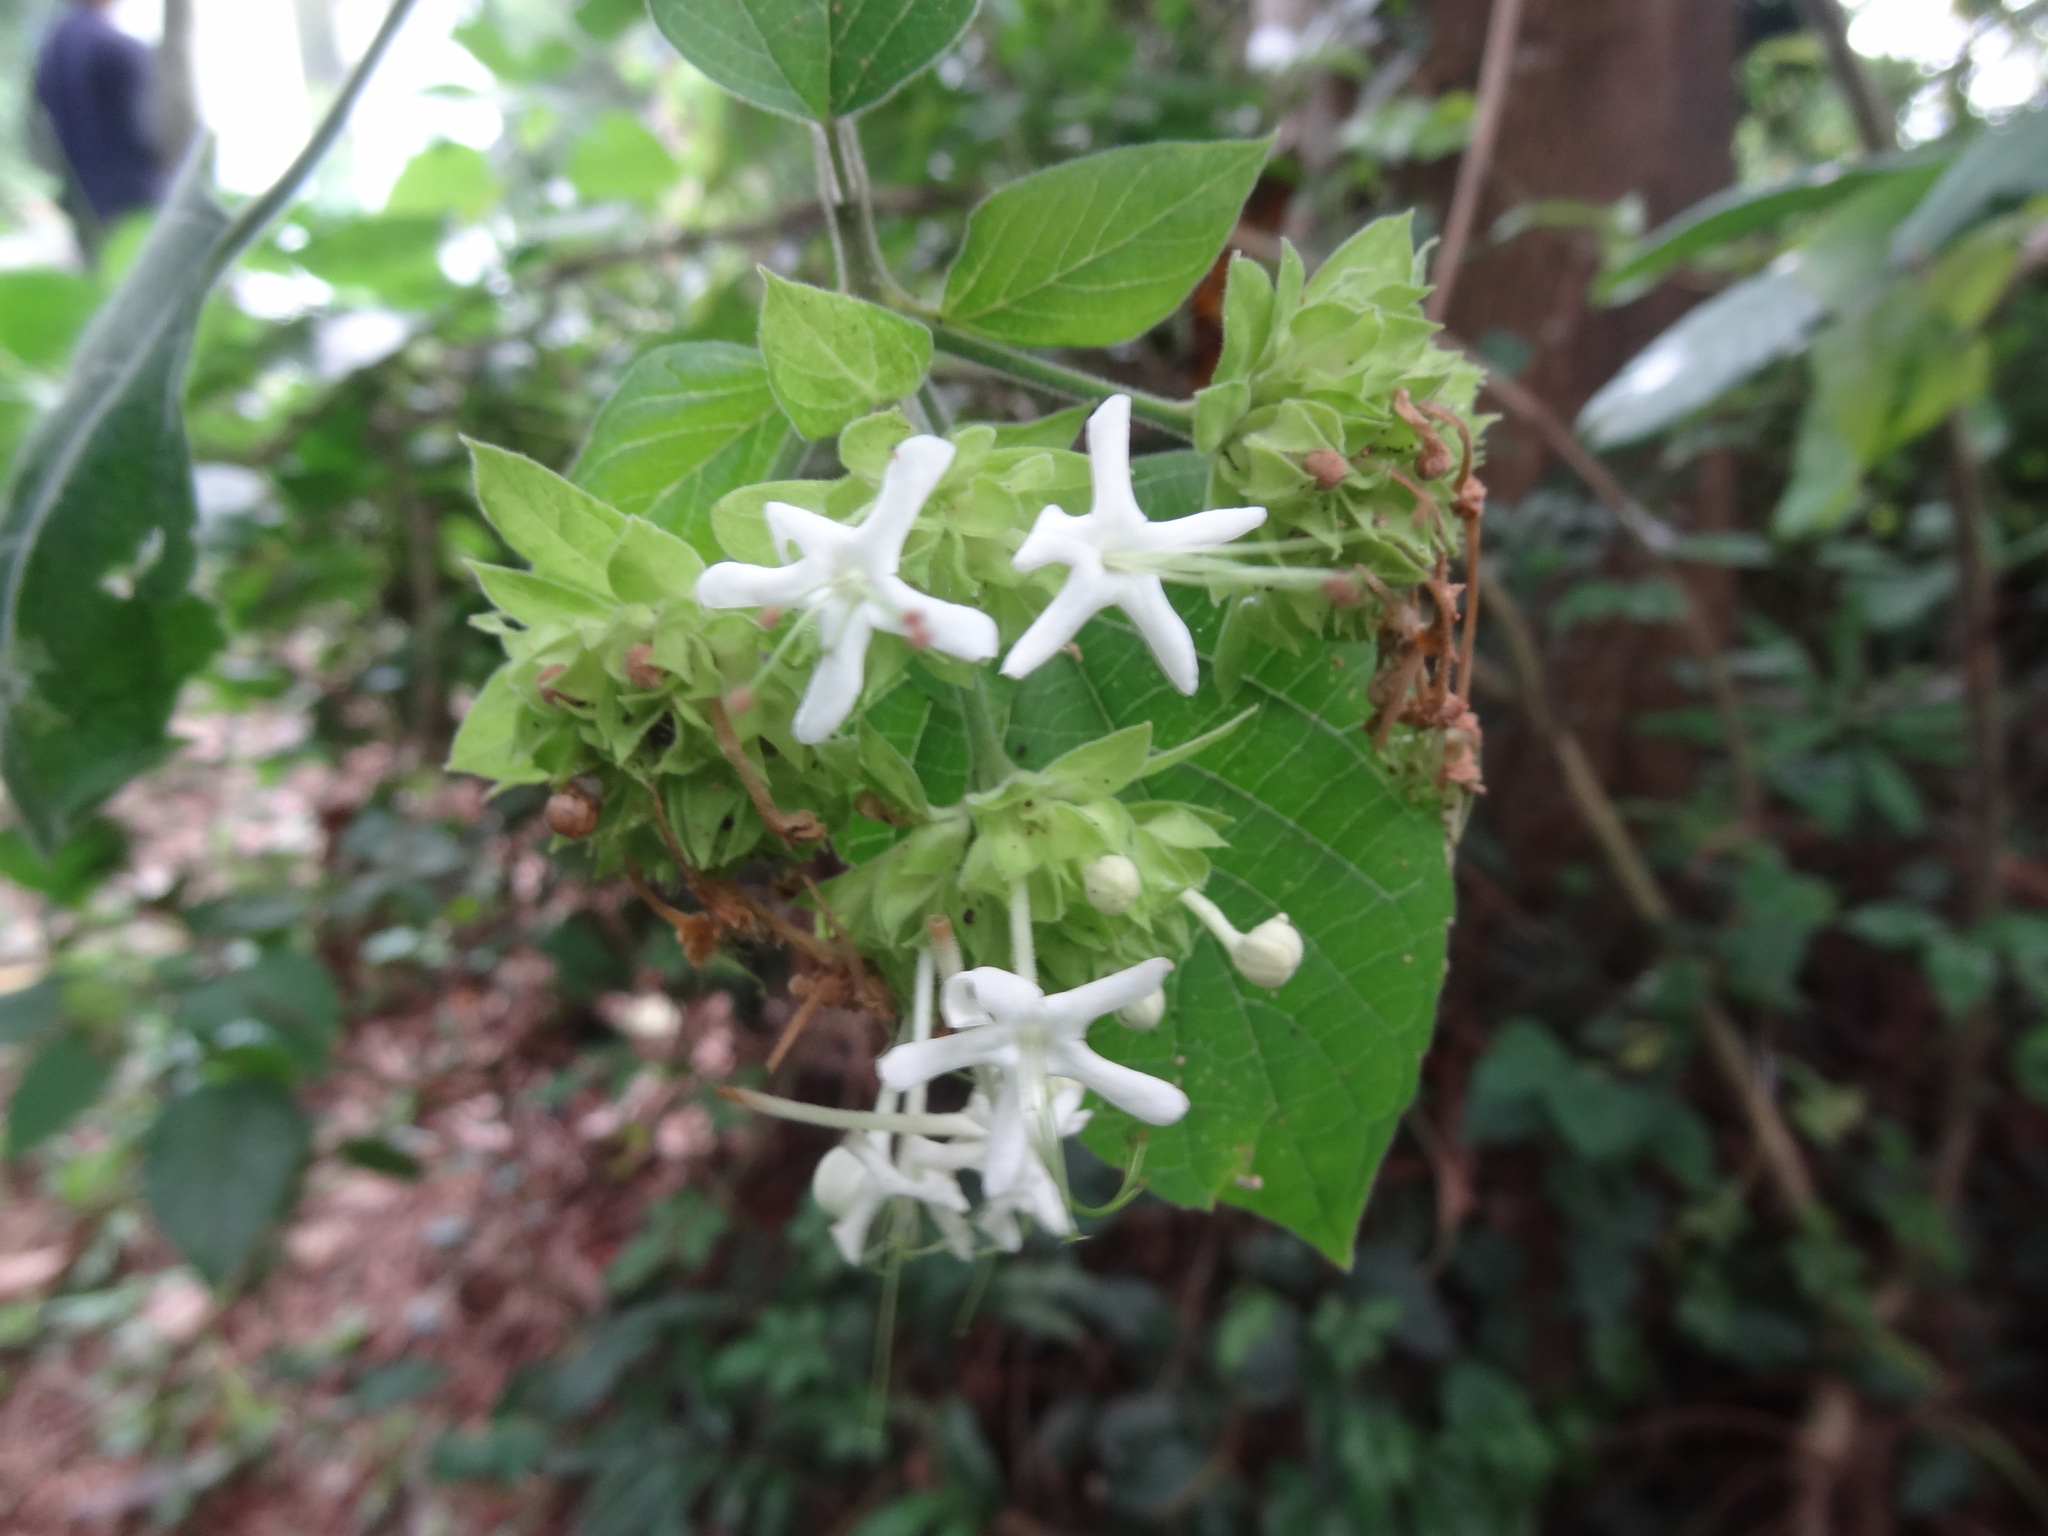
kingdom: Plantae
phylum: Tracheophyta
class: Magnoliopsida
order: Lamiales
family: Lamiaceae
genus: Clerodendrum
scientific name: Clerodendrum canescens
